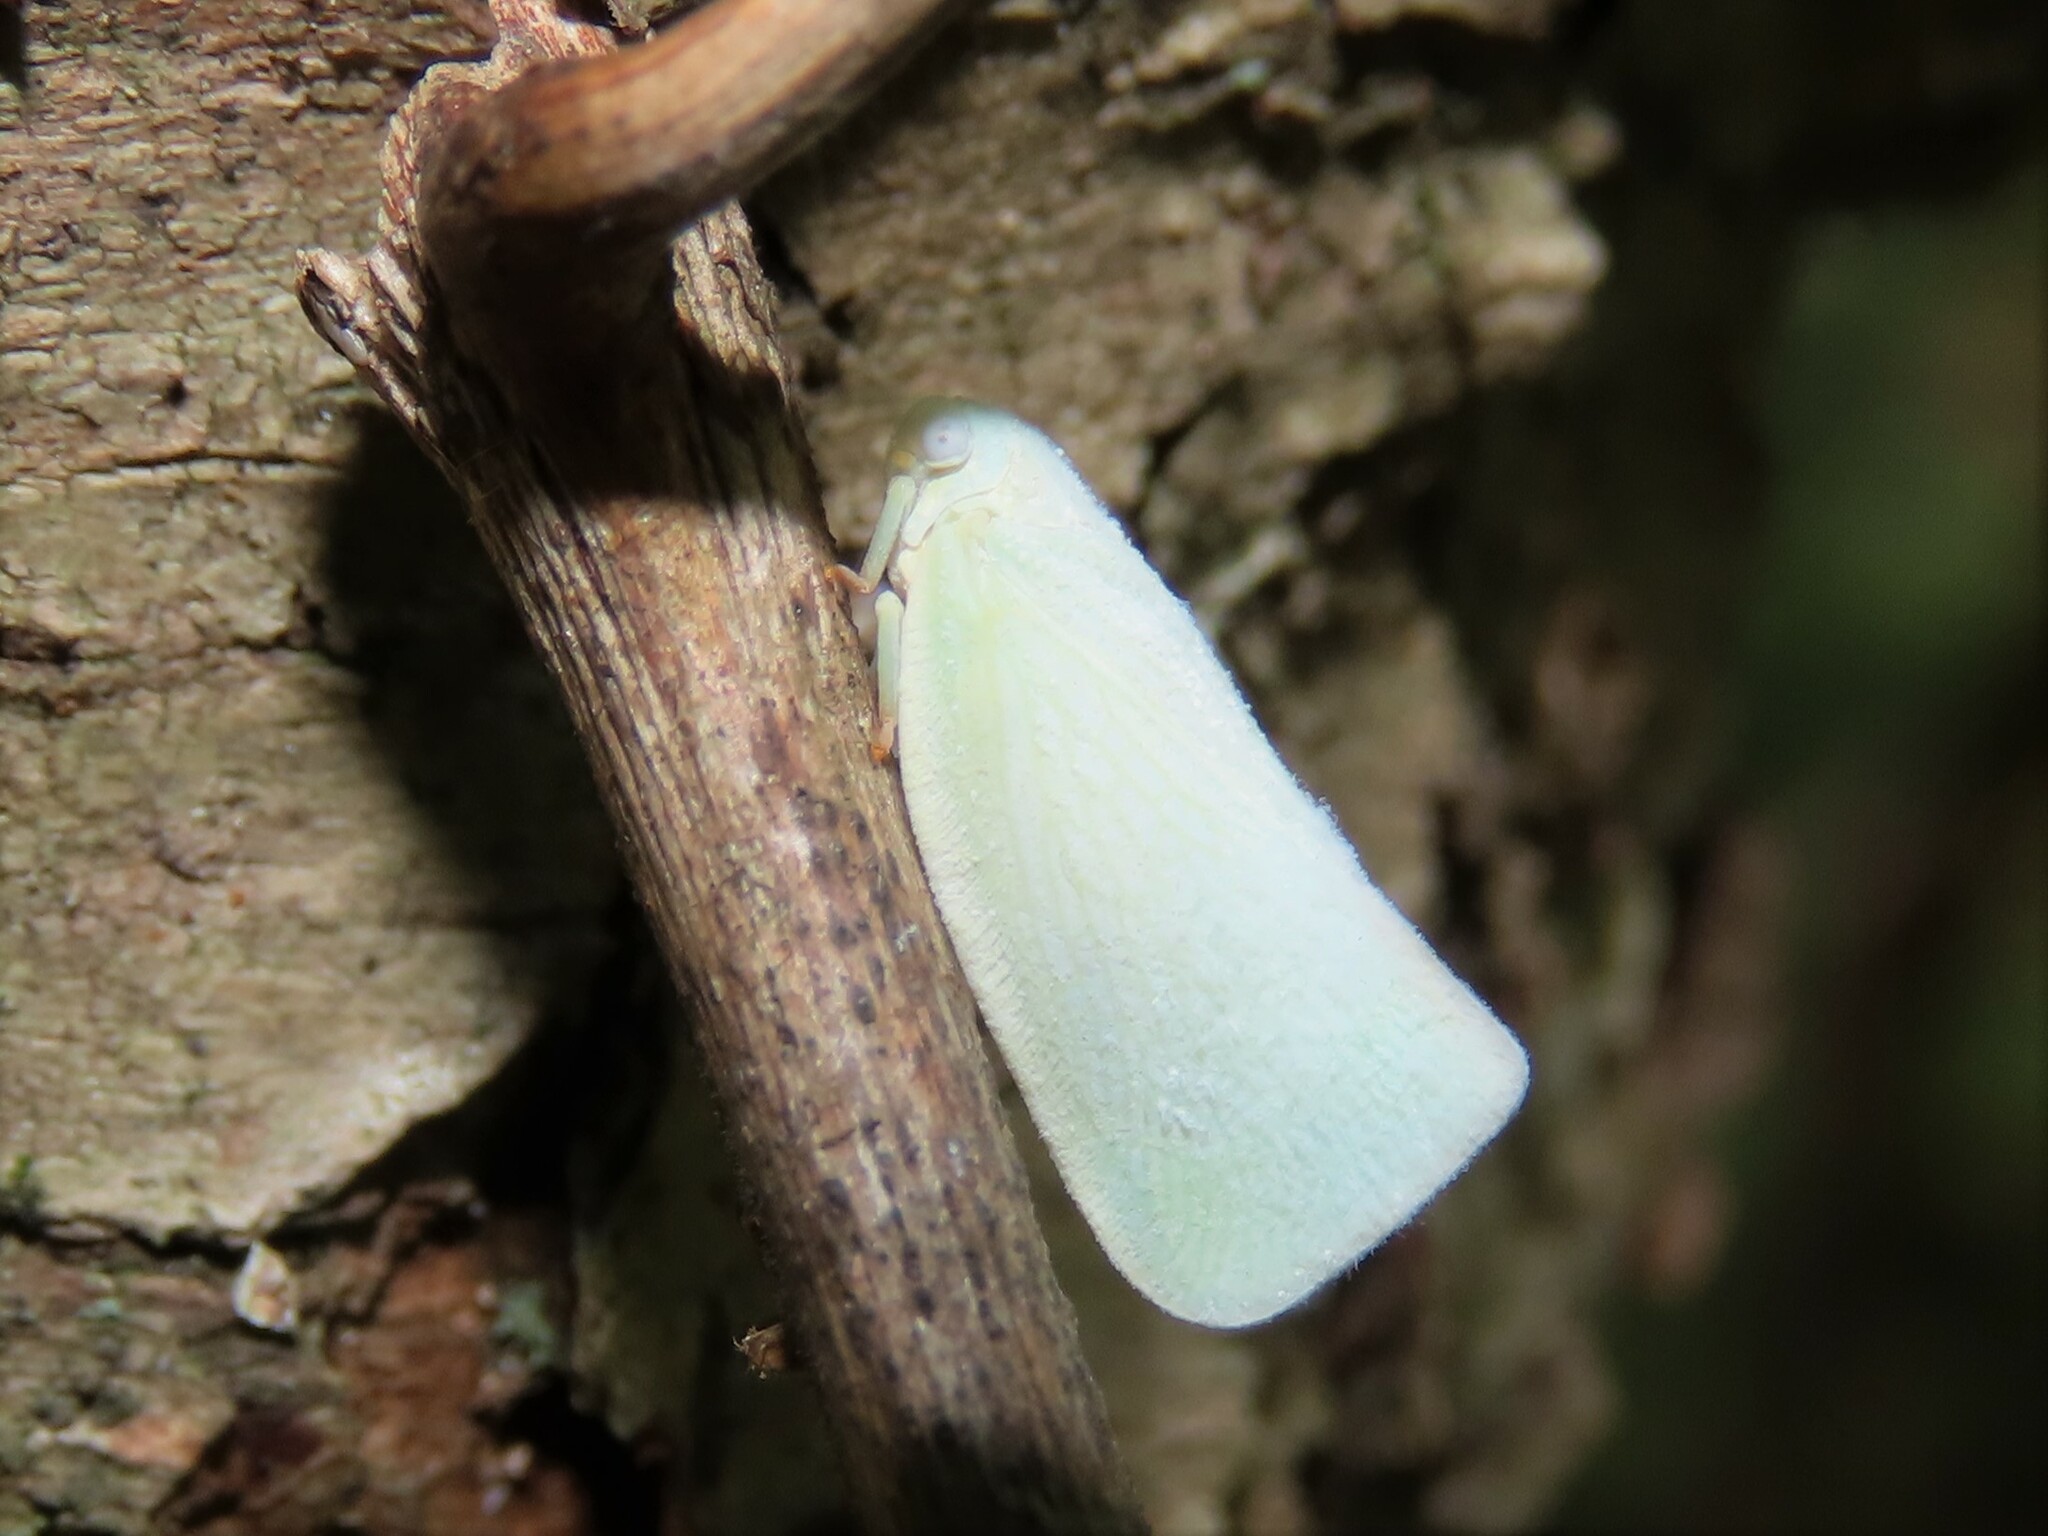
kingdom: Animalia
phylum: Arthropoda
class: Insecta
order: Hemiptera
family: Flatidae
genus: Flatormenis
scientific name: Flatormenis proxima
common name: Northern flatid planthopper
